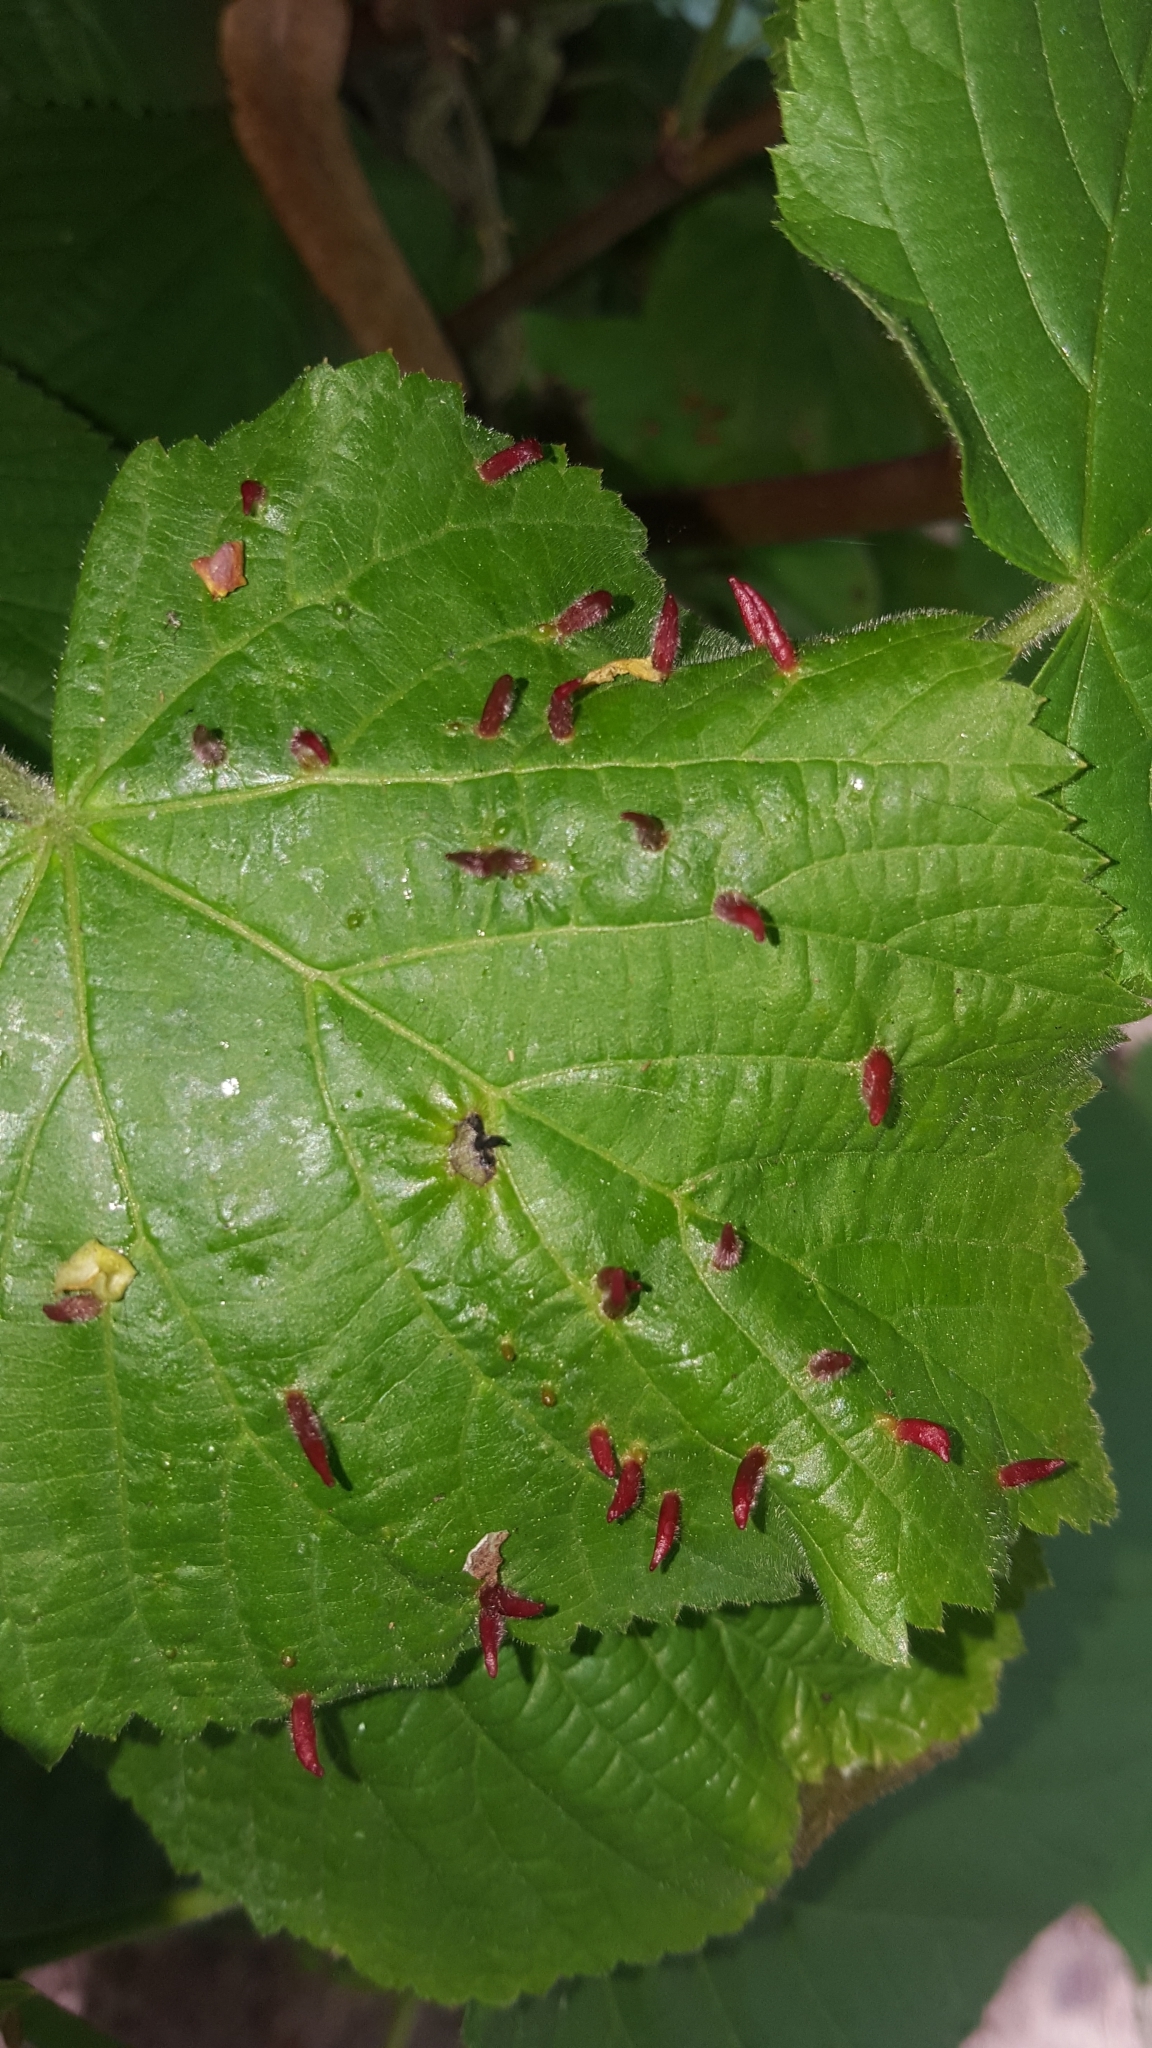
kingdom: Animalia
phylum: Arthropoda
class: Arachnida
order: Trombidiformes
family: Eriophyidae
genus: Eriophyes
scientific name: Eriophyes tiliae
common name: Red nail gall mite
